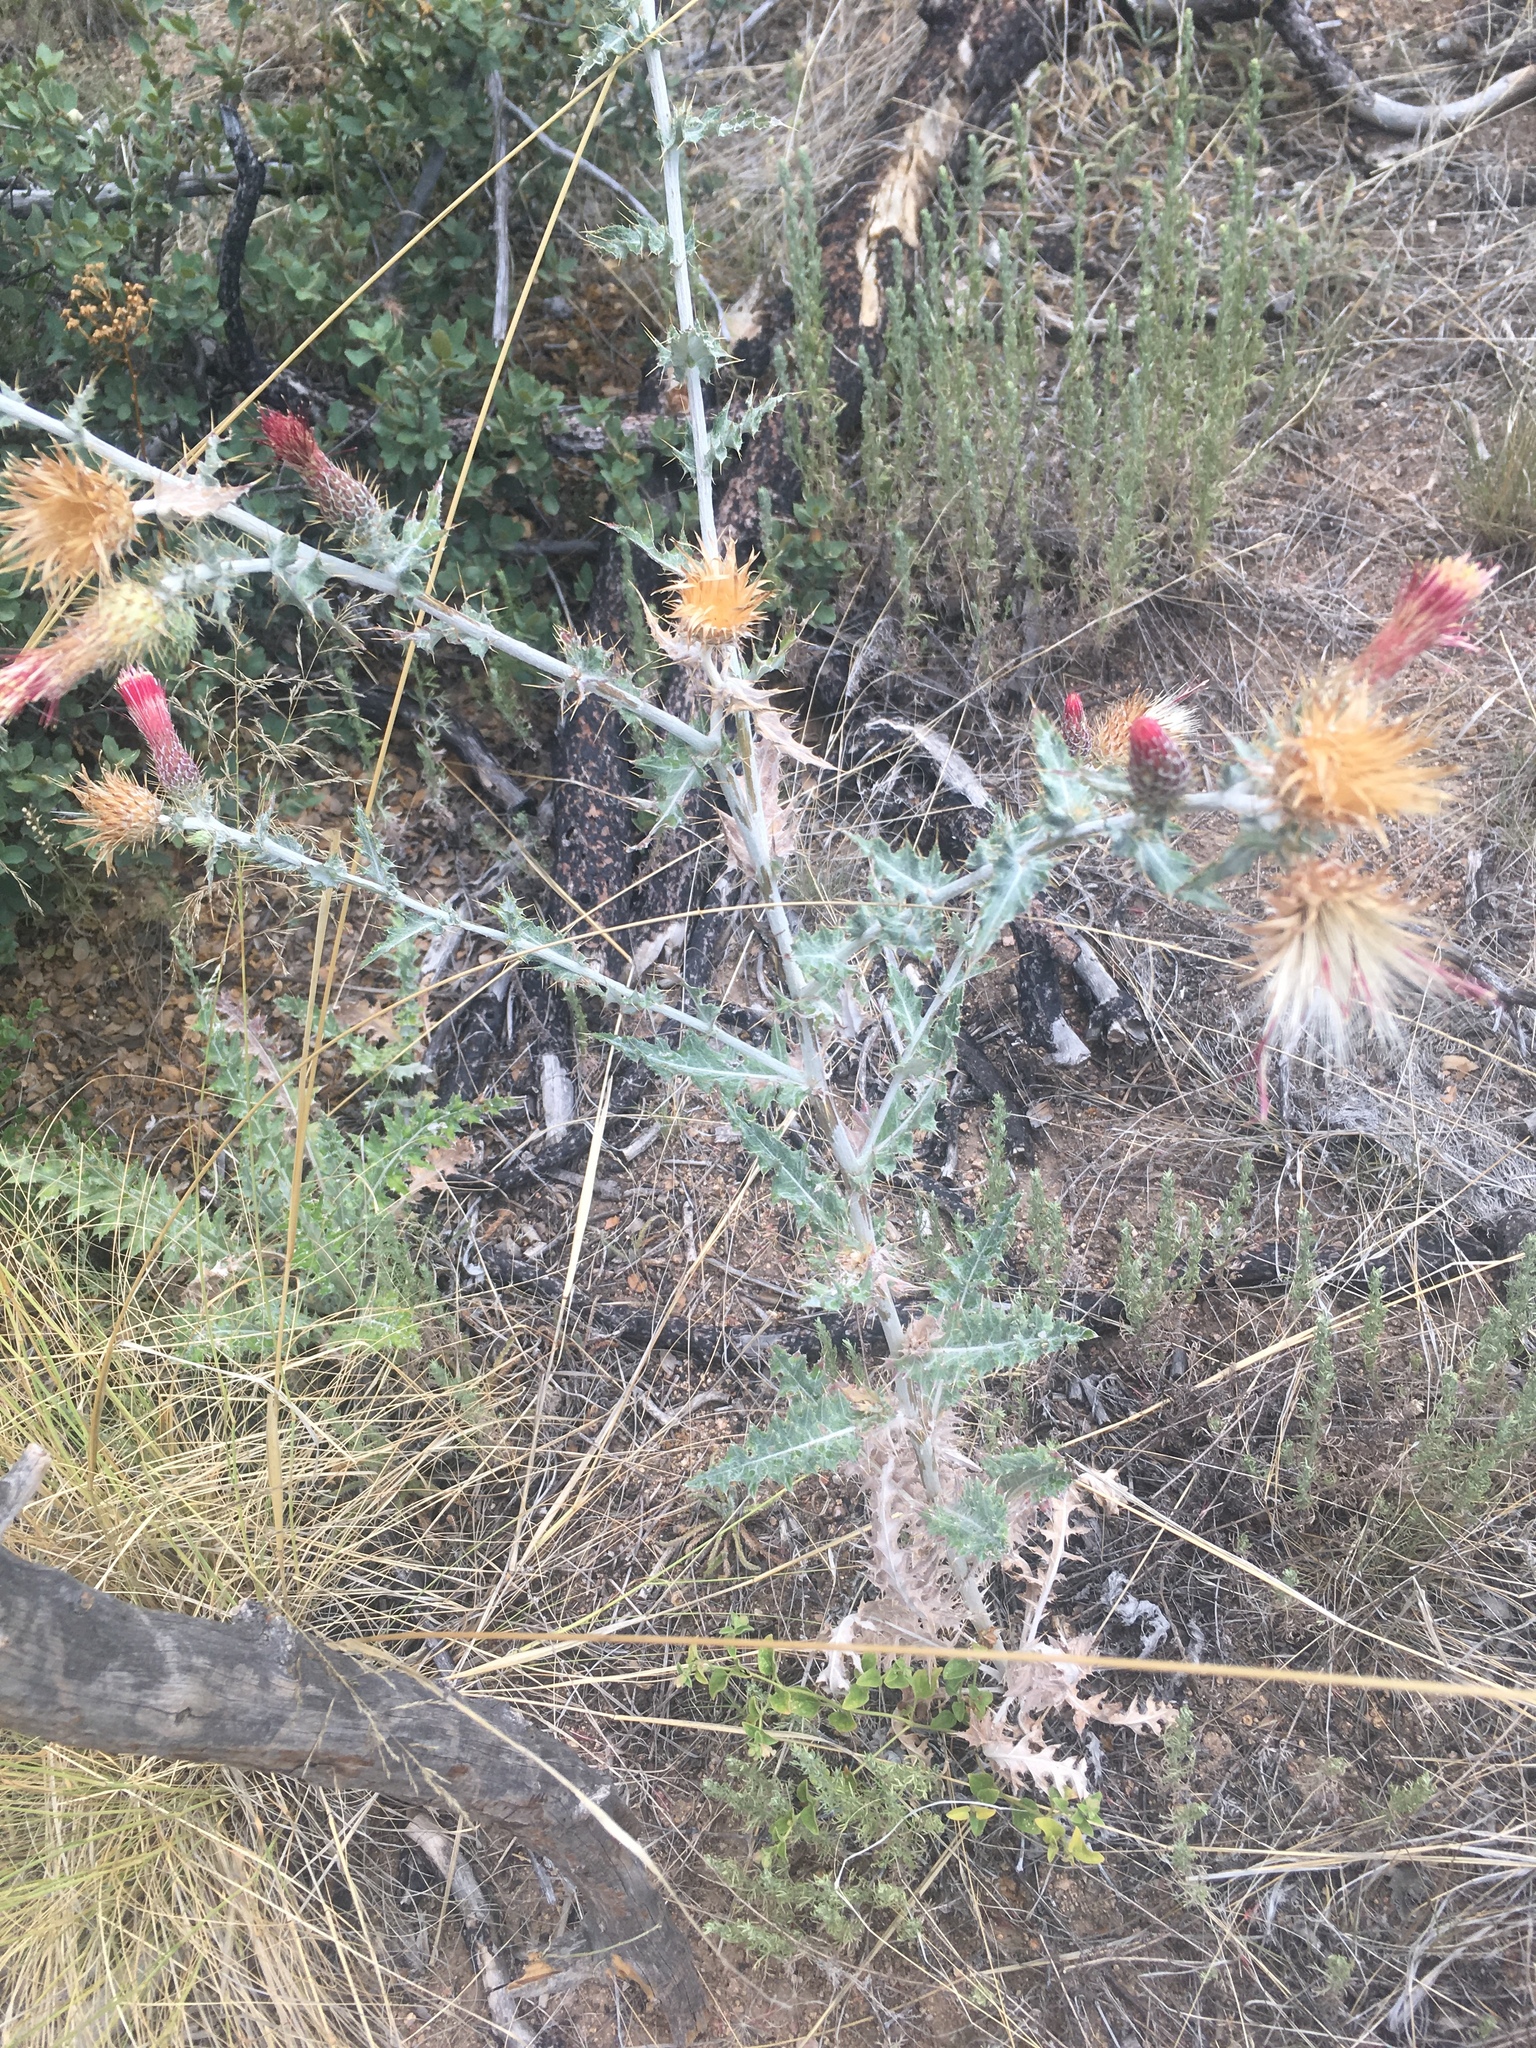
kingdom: Plantae
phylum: Tracheophyta
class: Magnoliopsida
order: Asterales
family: Asteraceae
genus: Cirsium
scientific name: Cirsium arizonicum
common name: Arizona thistle
